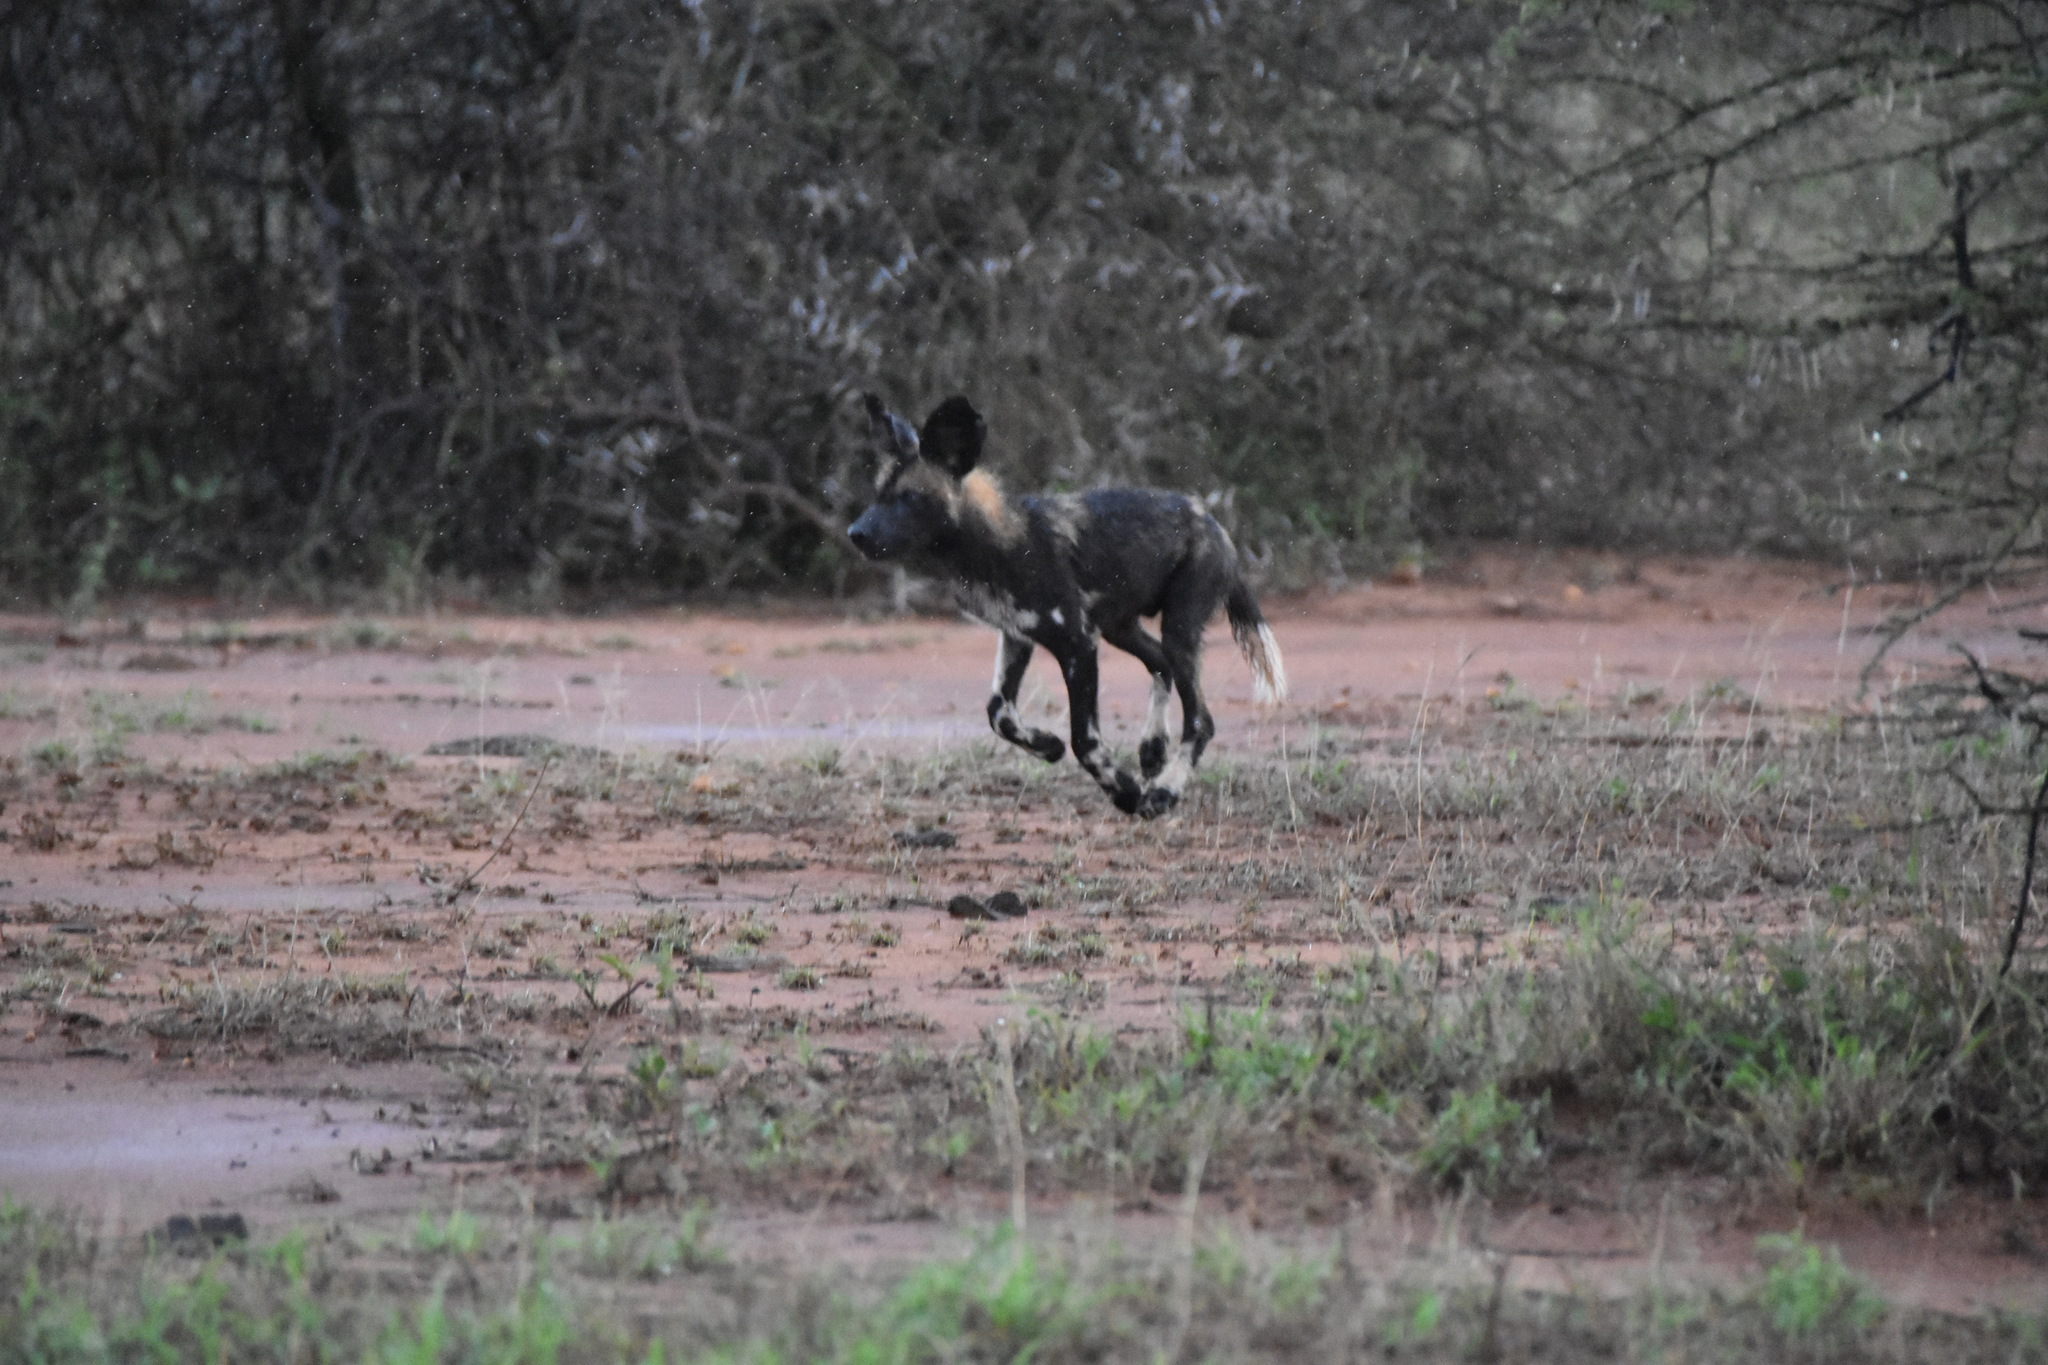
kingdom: Animalia
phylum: Chordata
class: Mammalia
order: Carnivora
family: Canidae
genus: Lycaon
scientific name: Lycaon pictus
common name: African wild dog
